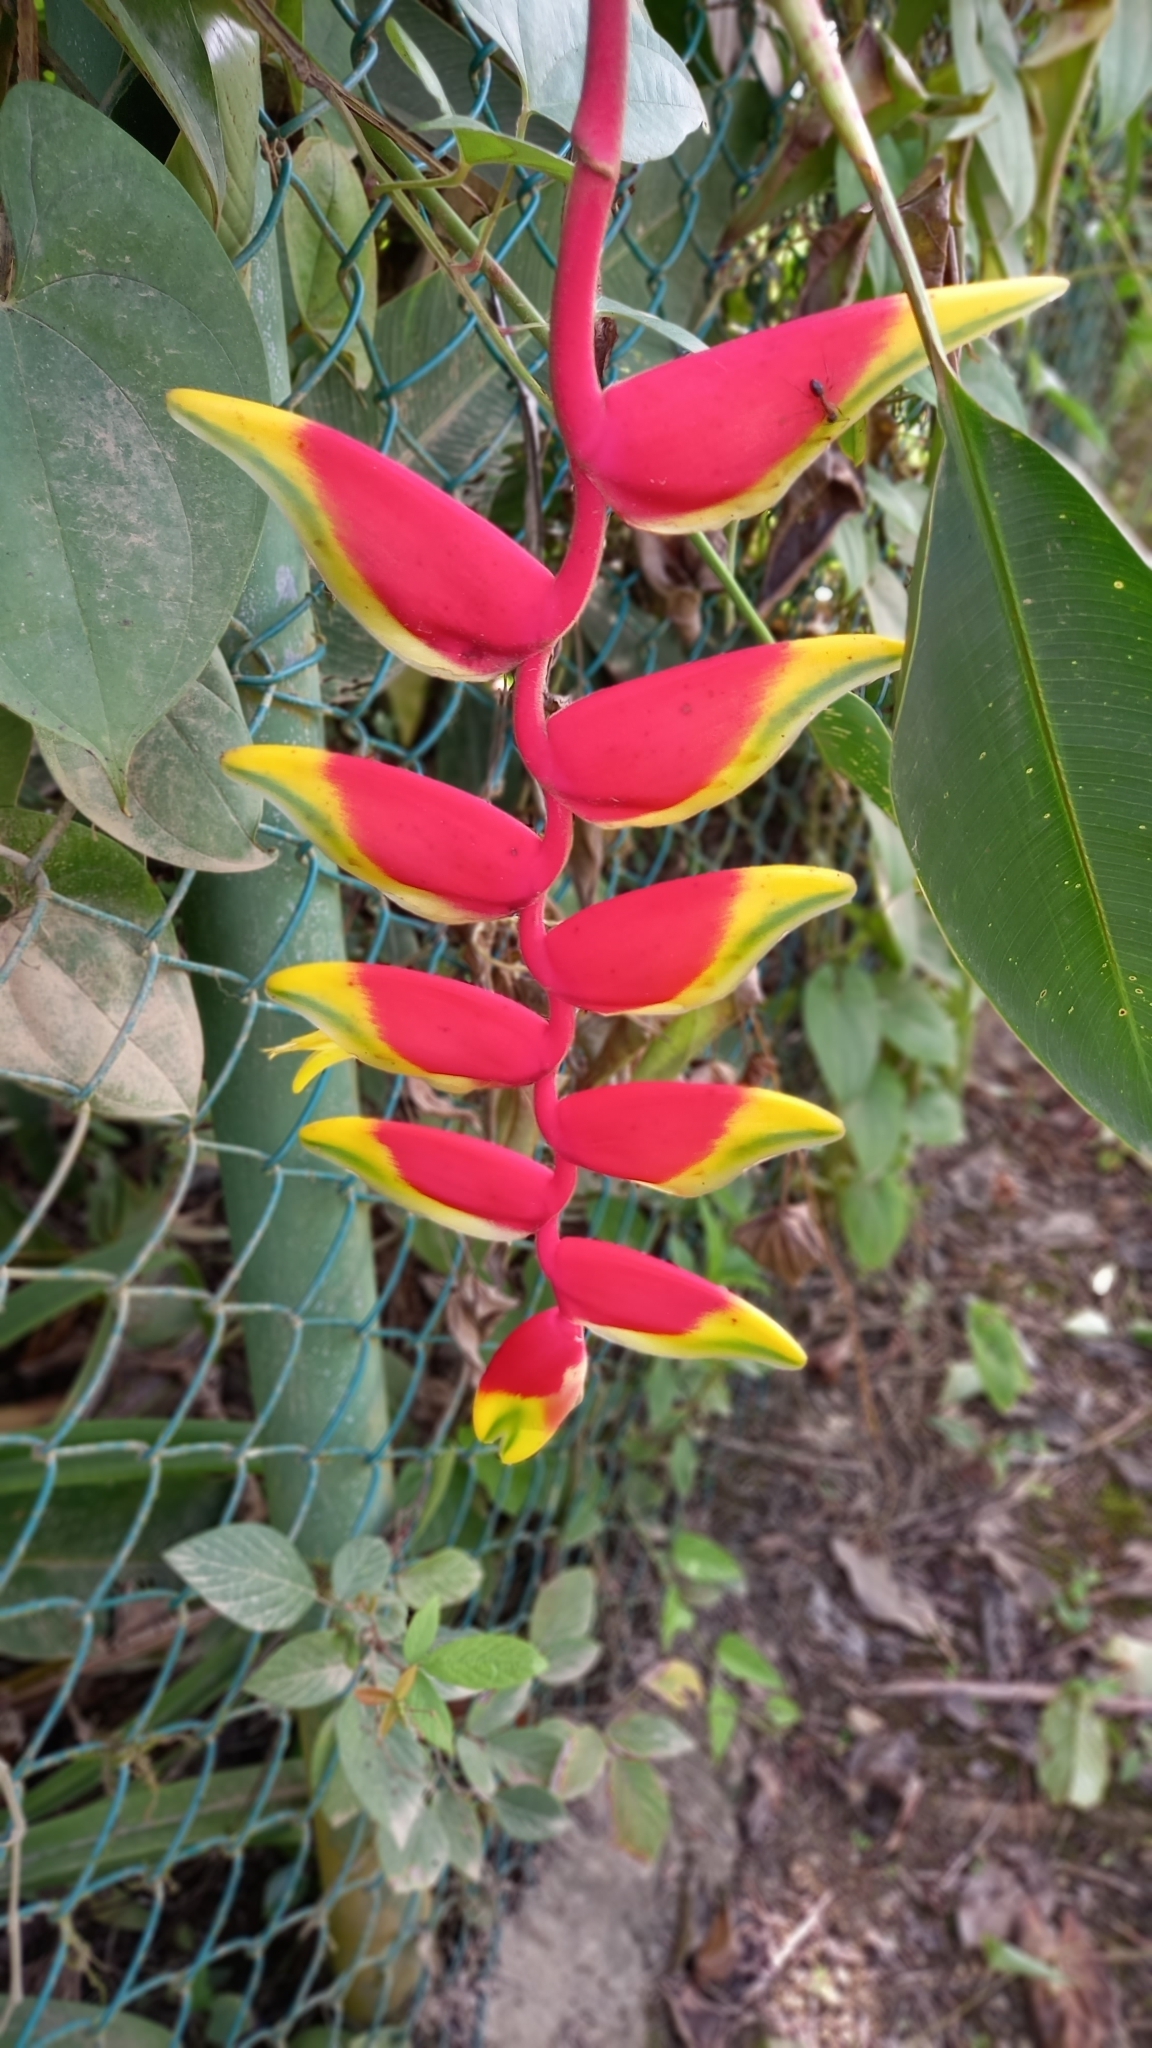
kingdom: Plantae
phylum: Tracheophyta
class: Liliopsida
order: Zingiberales
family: Heliconiaceae
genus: Heliconia
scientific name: Heliconia rostrata
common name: False bird of paradise
